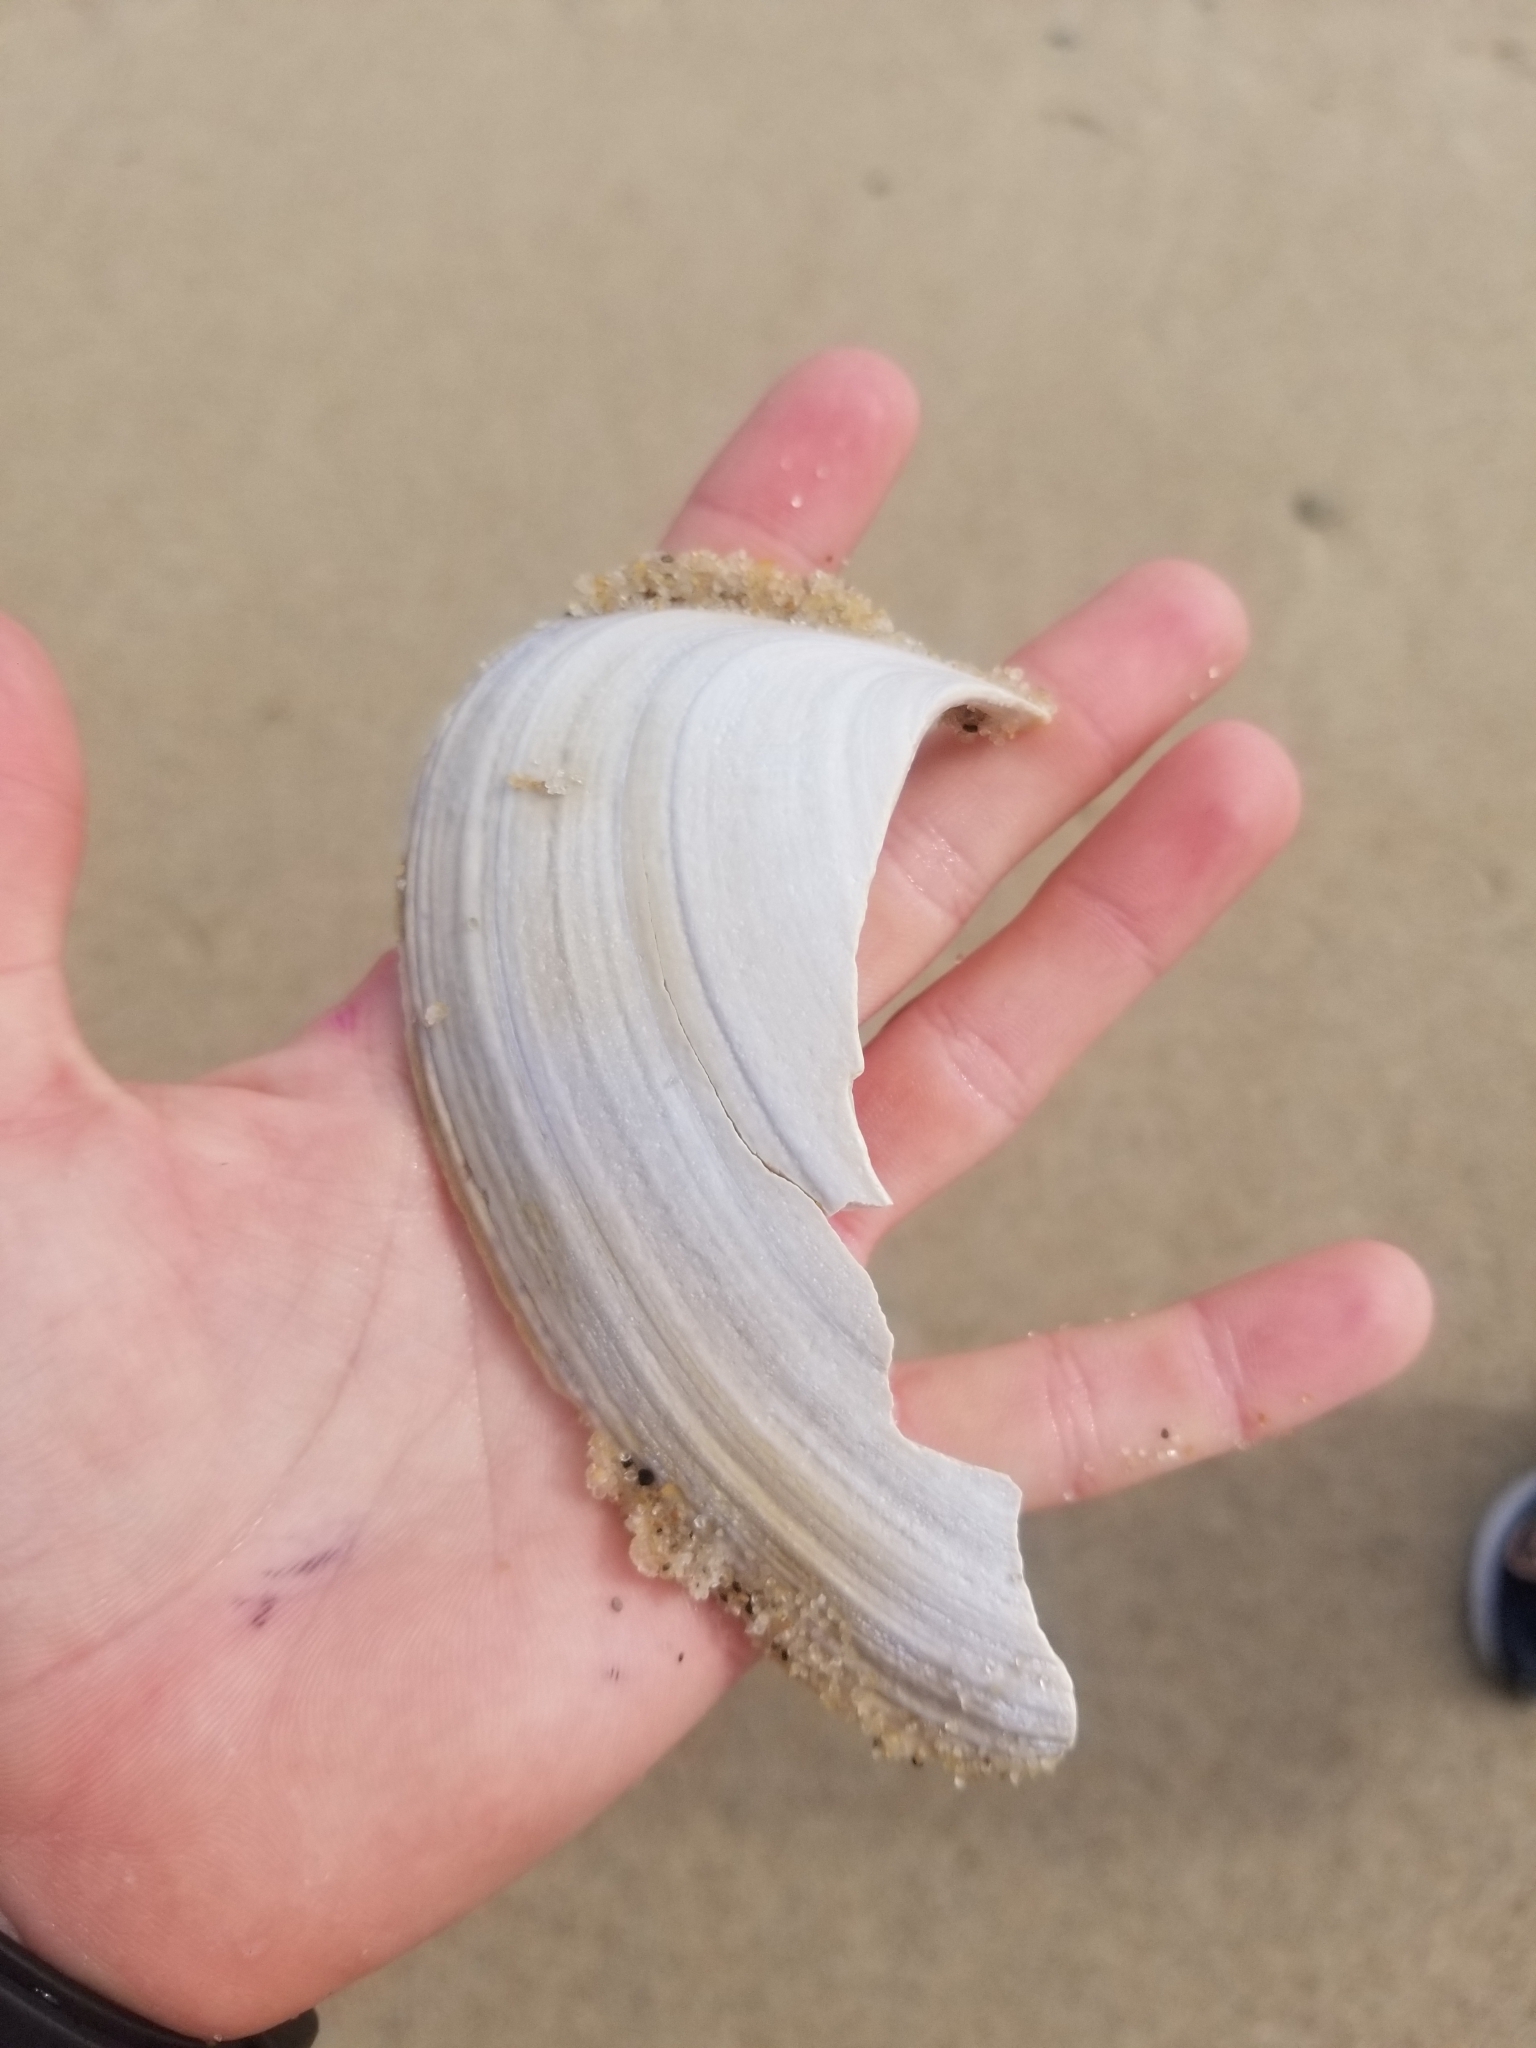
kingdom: Animalia
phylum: Mollusca
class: Bivalvia
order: Venerida
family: Mactridae
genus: Spisula
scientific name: Spisula solidissima
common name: Atlantic surf clam
